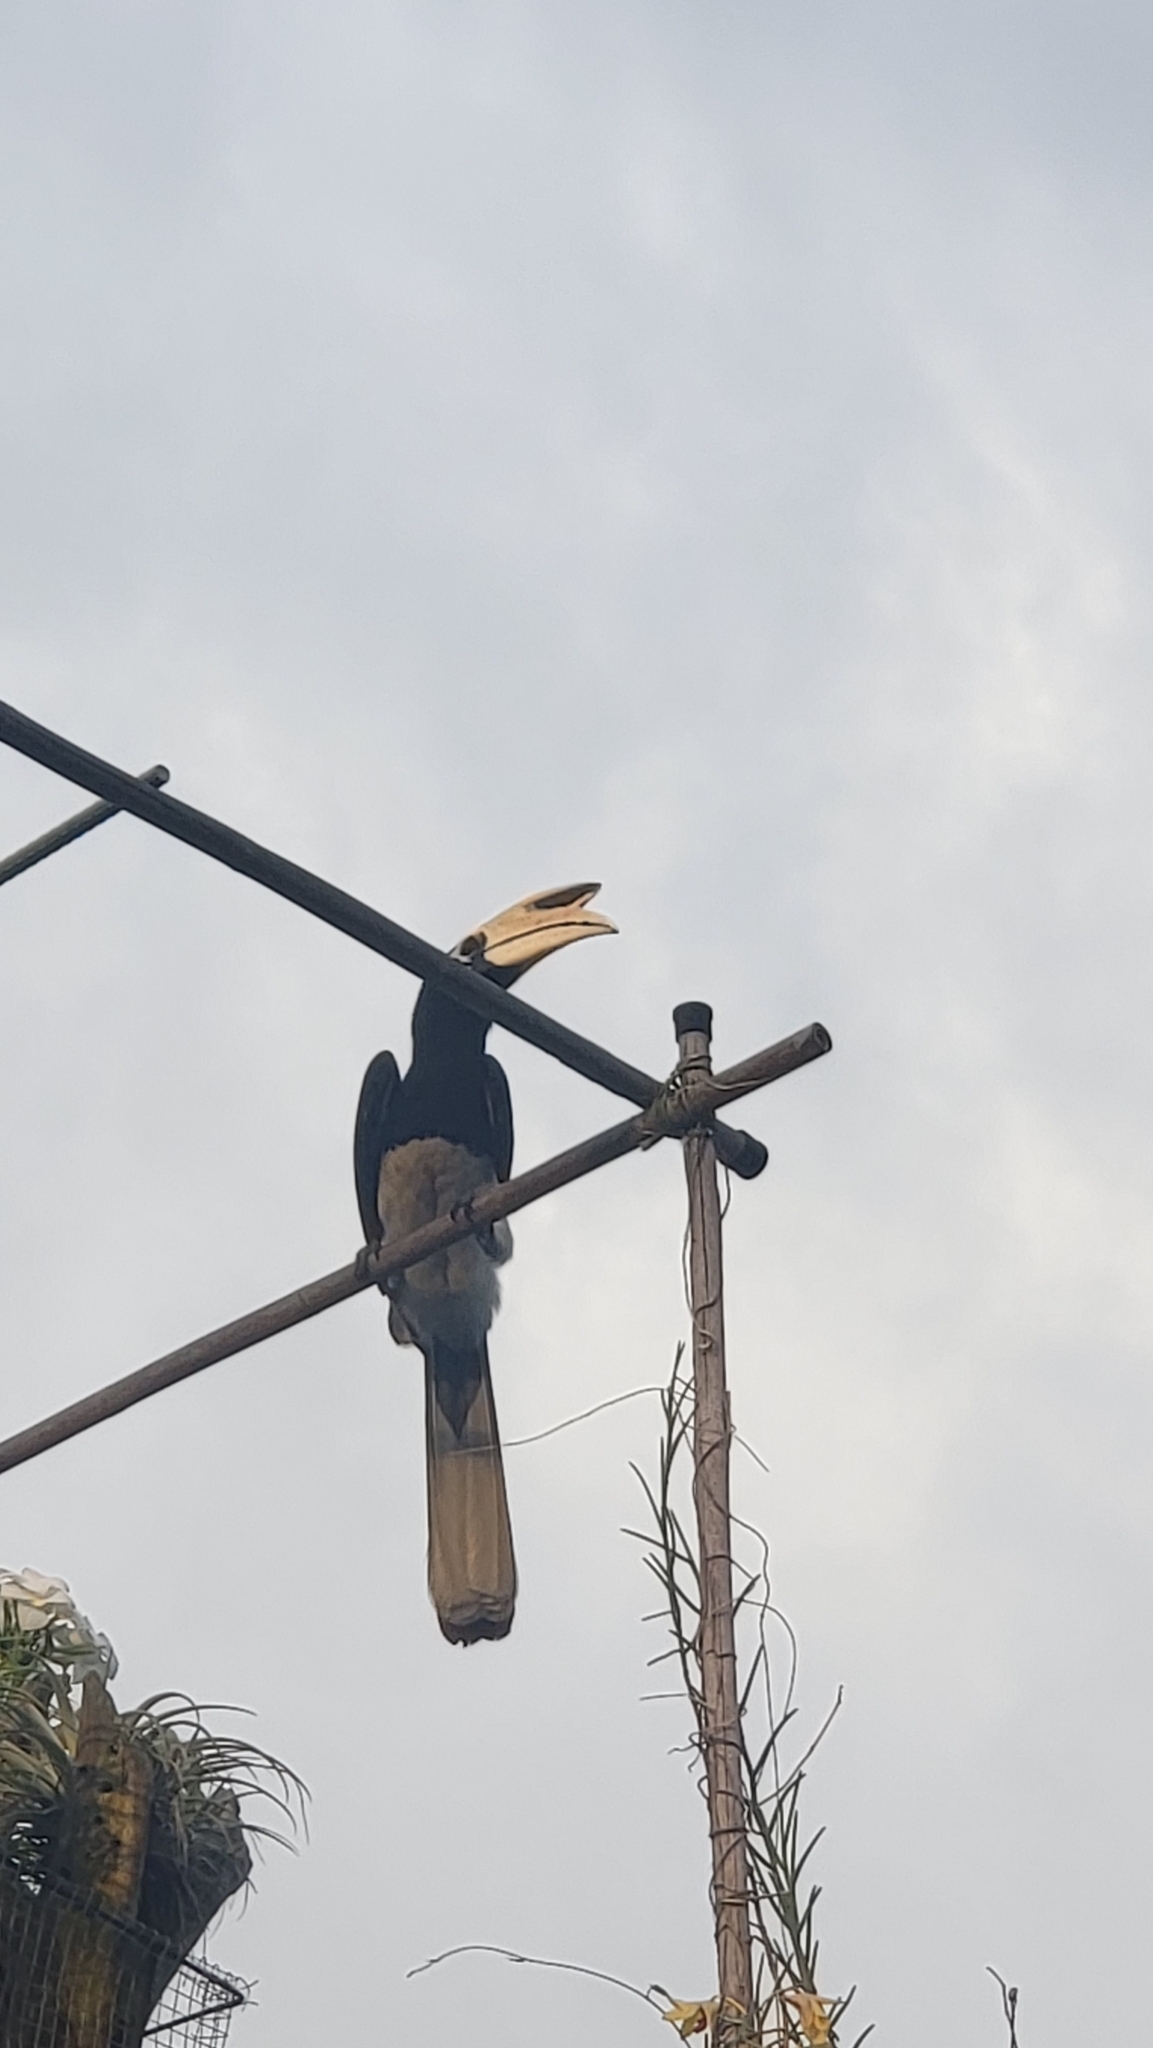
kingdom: Animalia
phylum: Chordata
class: Aves
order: Bucerotiformes
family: Bucerotidae
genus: Anthracoceros
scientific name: Anthracoceros albirostris
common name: Oriental pied-hornbill
